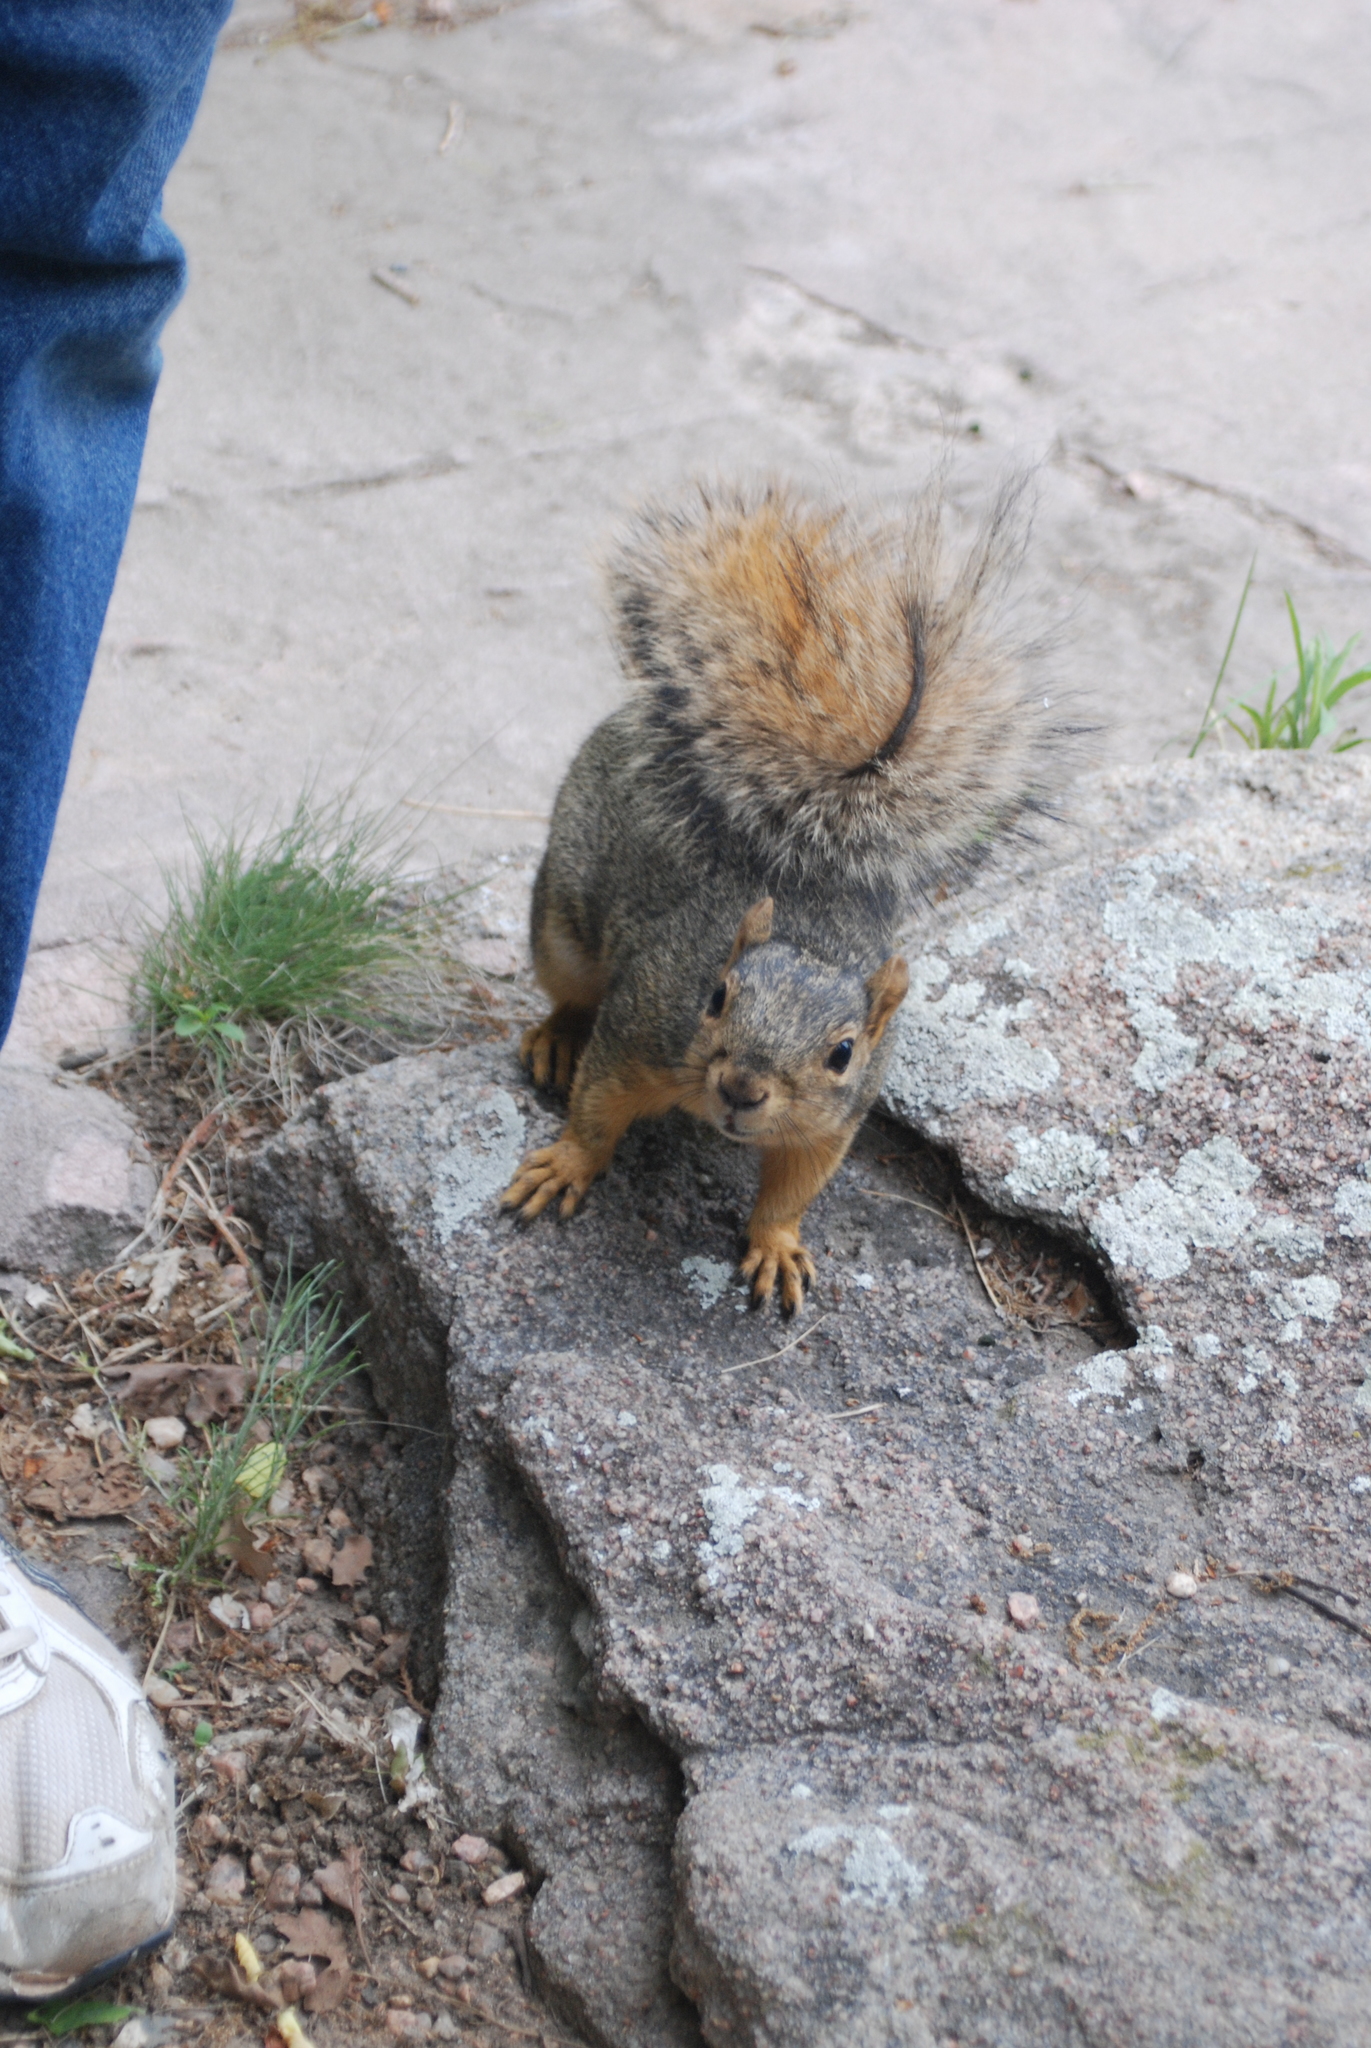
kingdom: Animalia
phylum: Chordata
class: Mammalia
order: Rodentia
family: Sciuridae
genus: Sciurus
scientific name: Sciurus niger
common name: Fox squirrel
